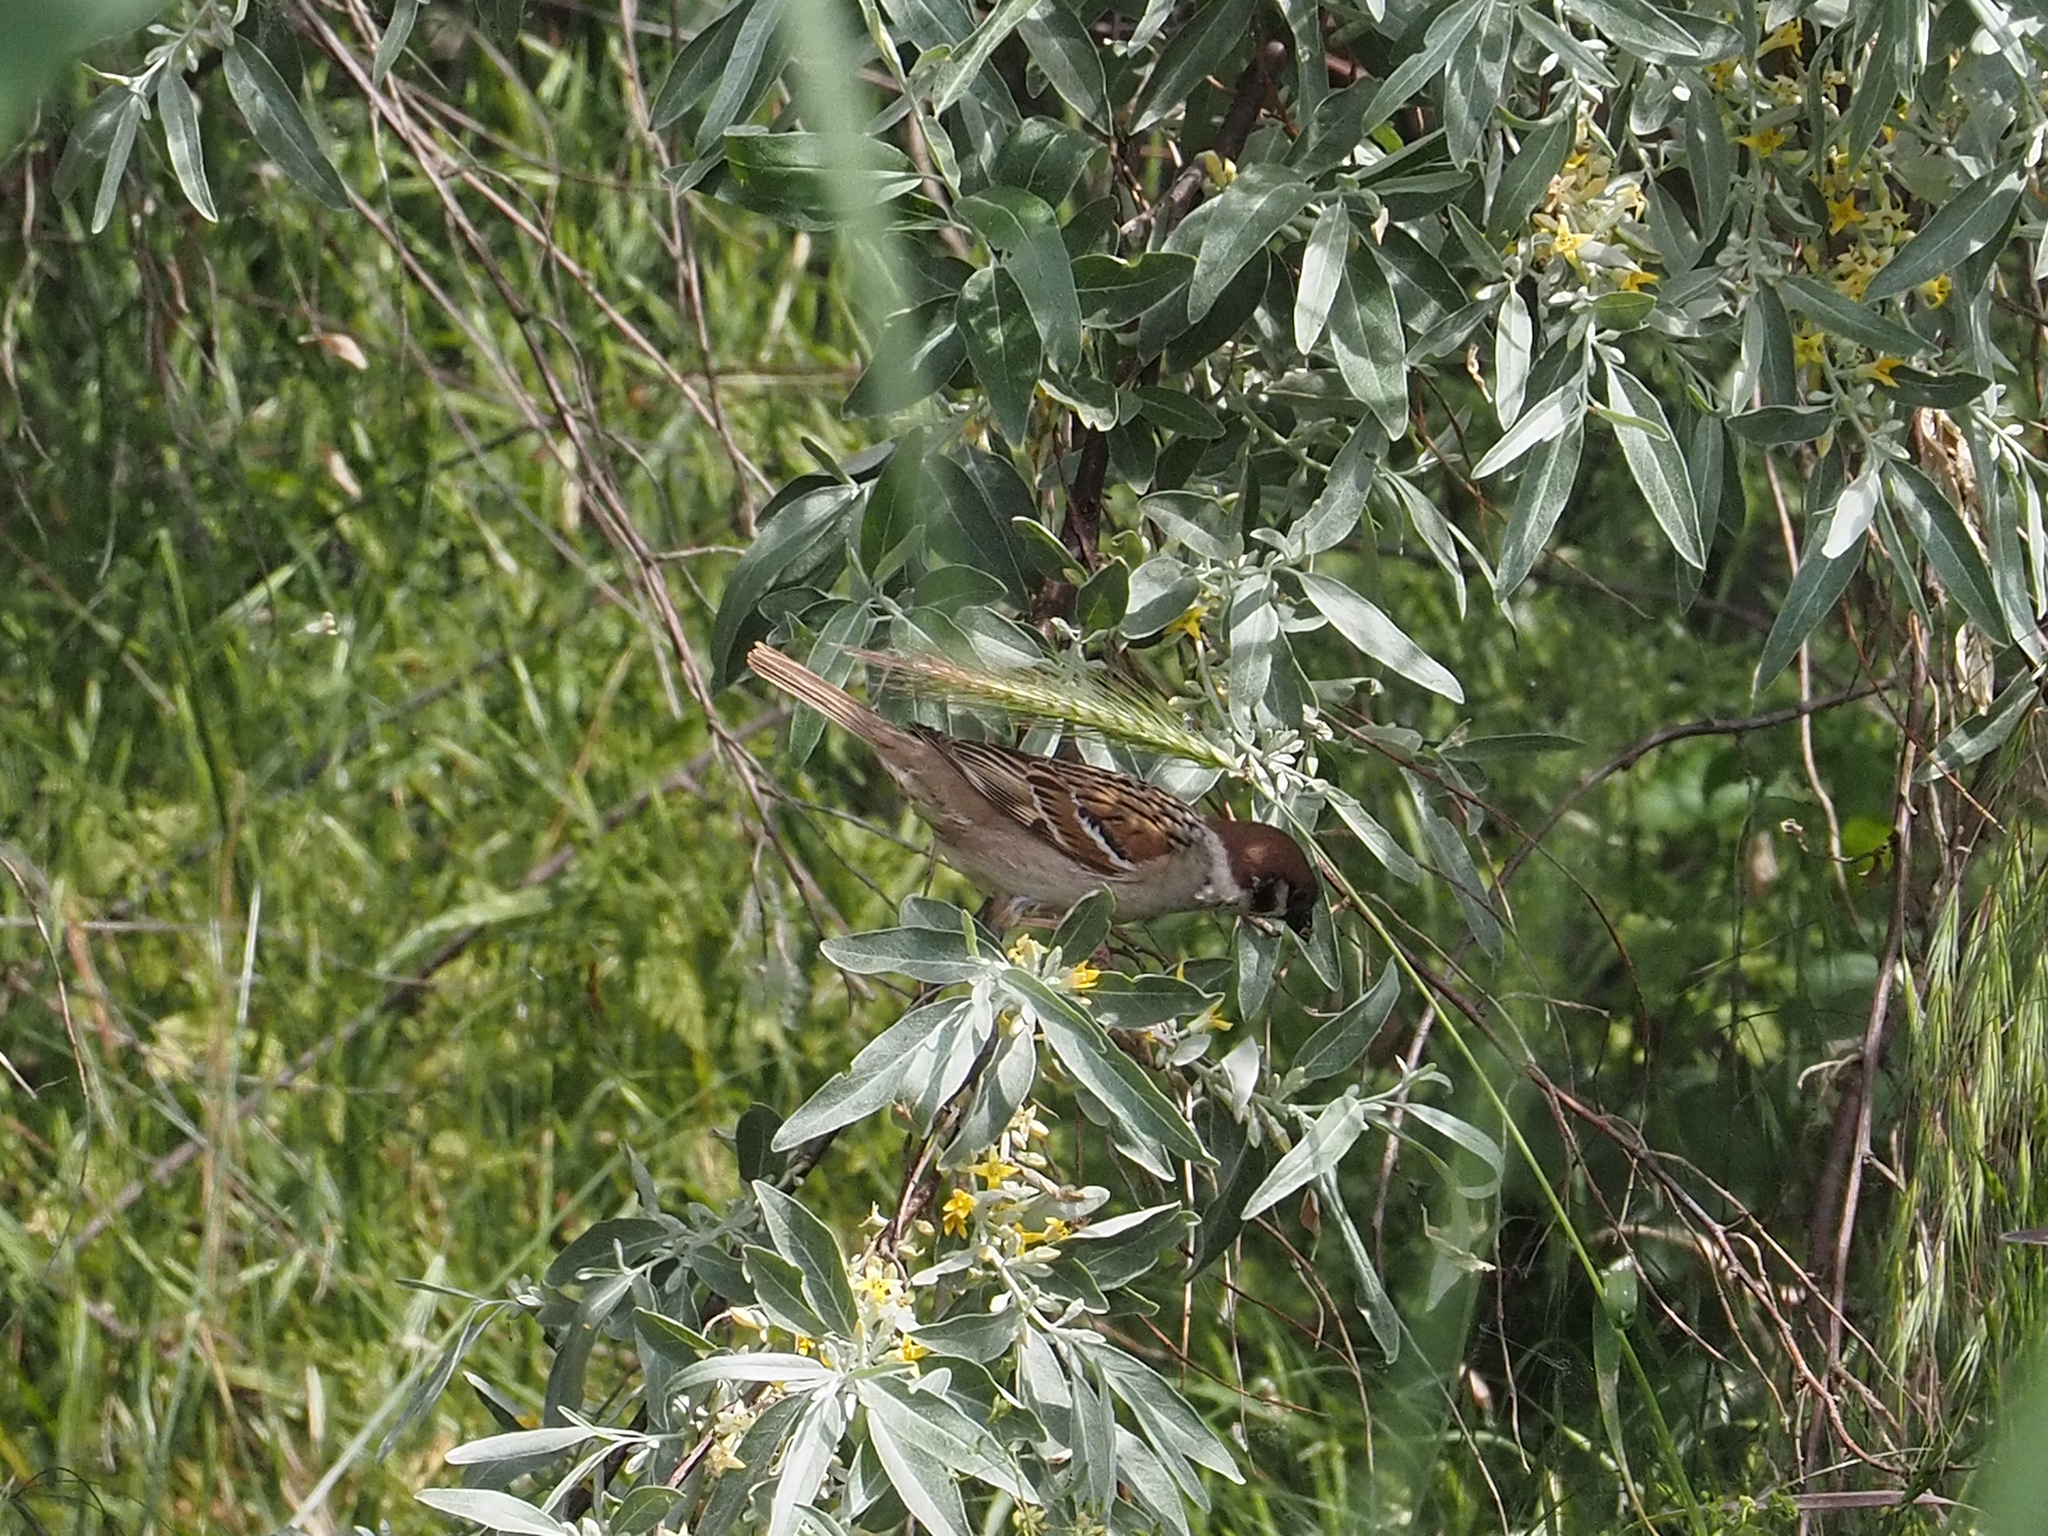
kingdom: Animalia
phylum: Chordata
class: Aves
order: Passeriformes
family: Passeridae
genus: Passer
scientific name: Passer montanus
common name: Eurasian tree sparrow
